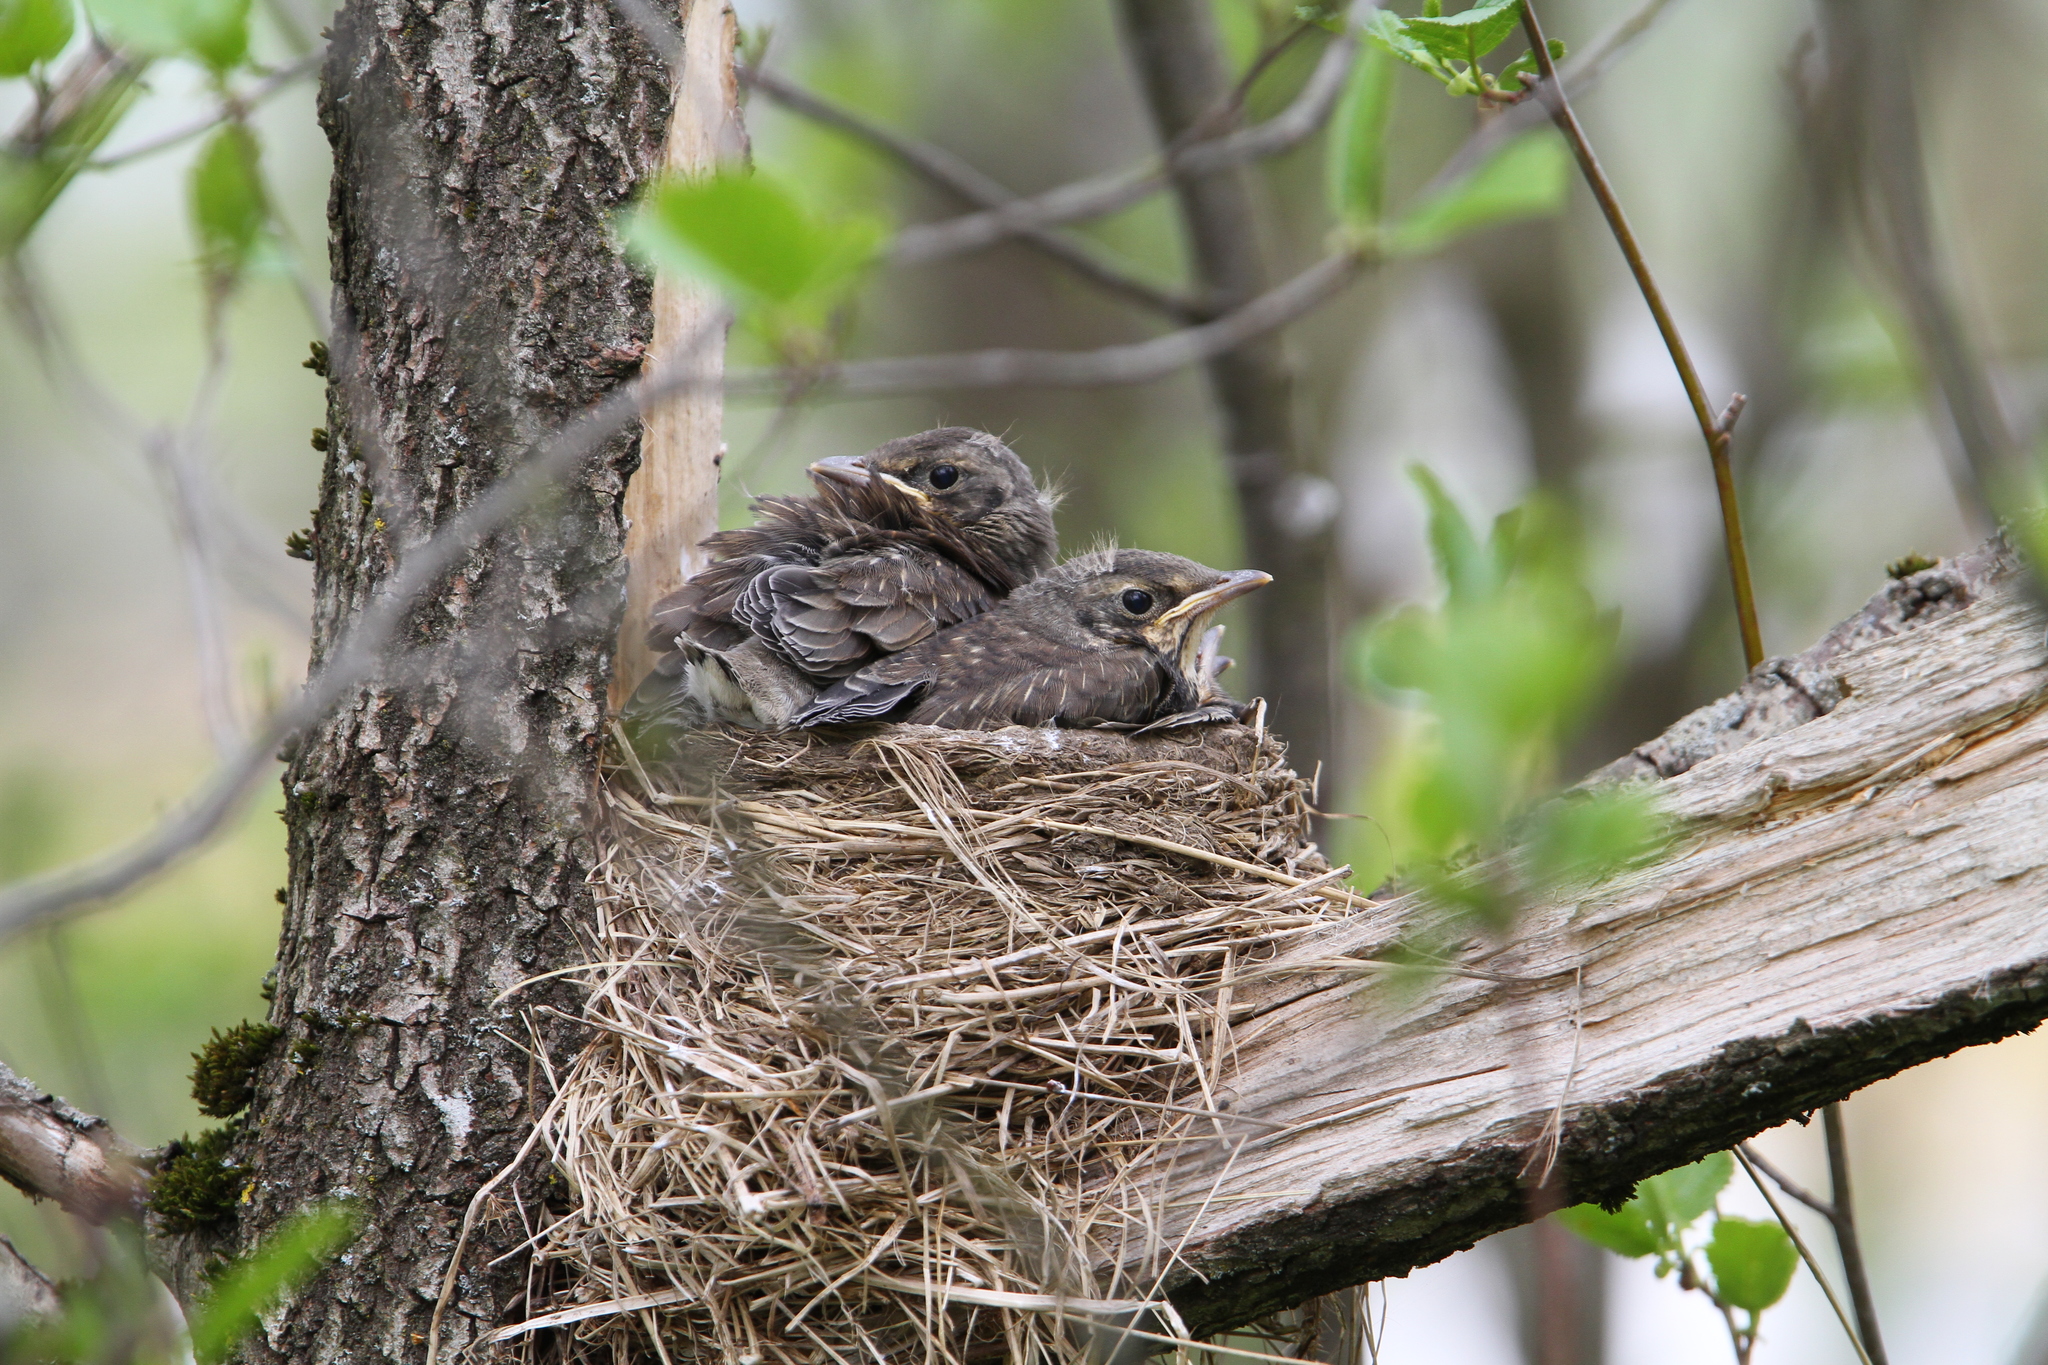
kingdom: Animalia
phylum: Chordata
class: Aves
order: Passeriformes
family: Turdidae
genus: Turdus
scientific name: Turdus pilaris
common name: Fieldfare
